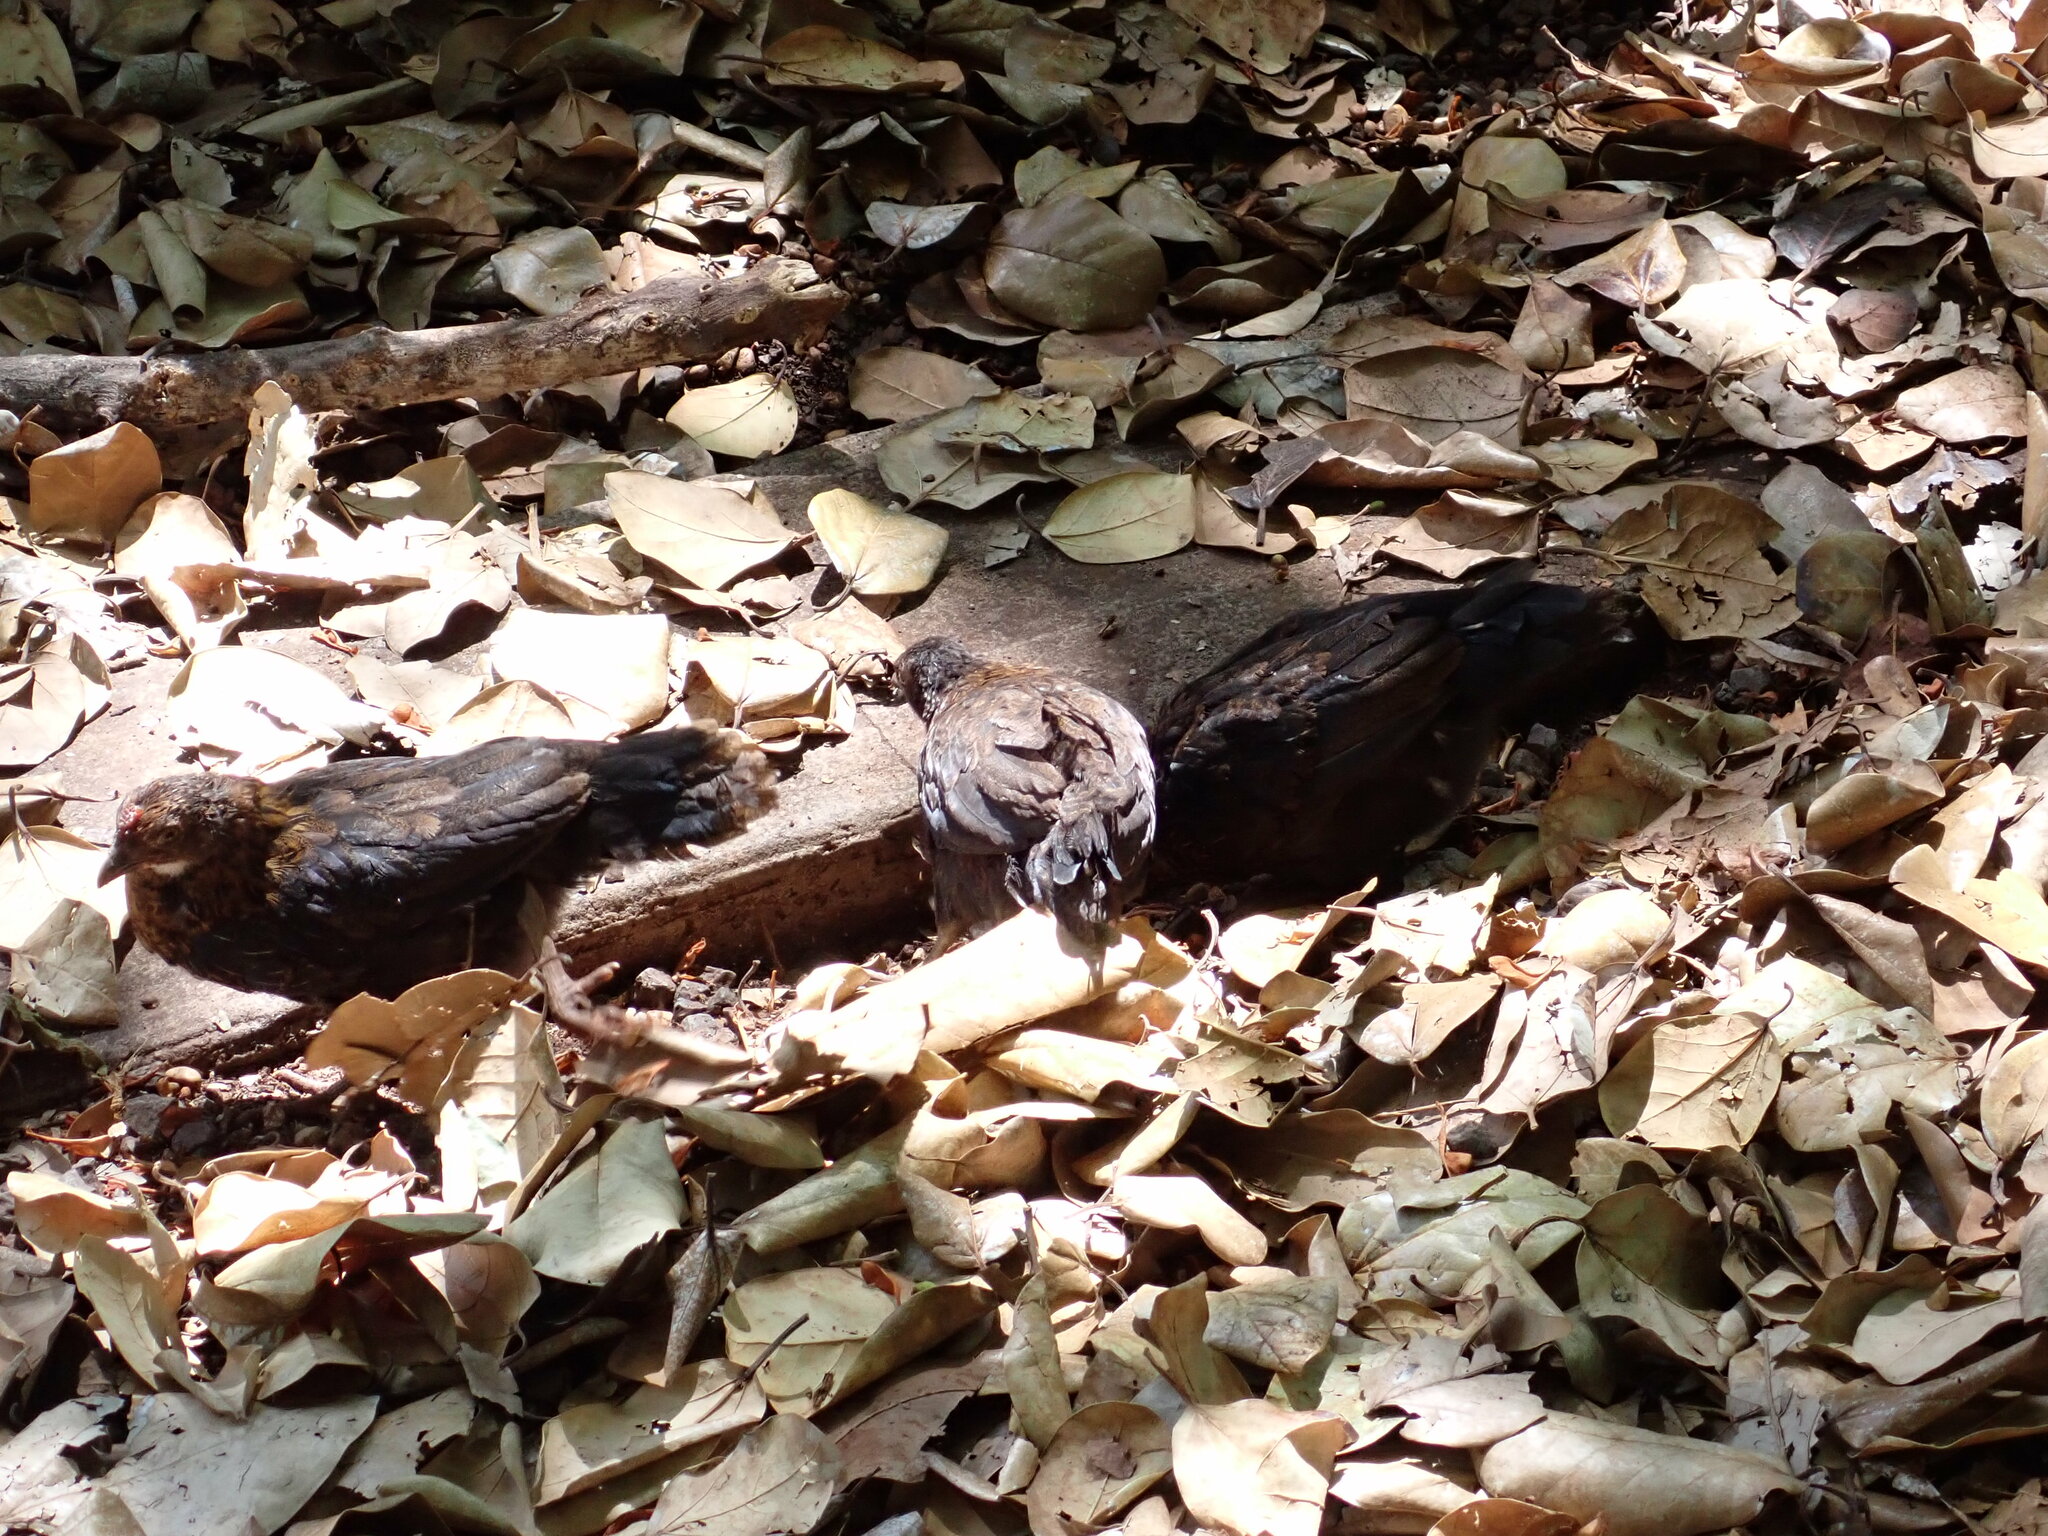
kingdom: Animalia
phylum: Chordata
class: Aves
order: Galliformes
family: Phasianidae
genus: Gallus
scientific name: Gallus gallus
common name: Red junglefowl
